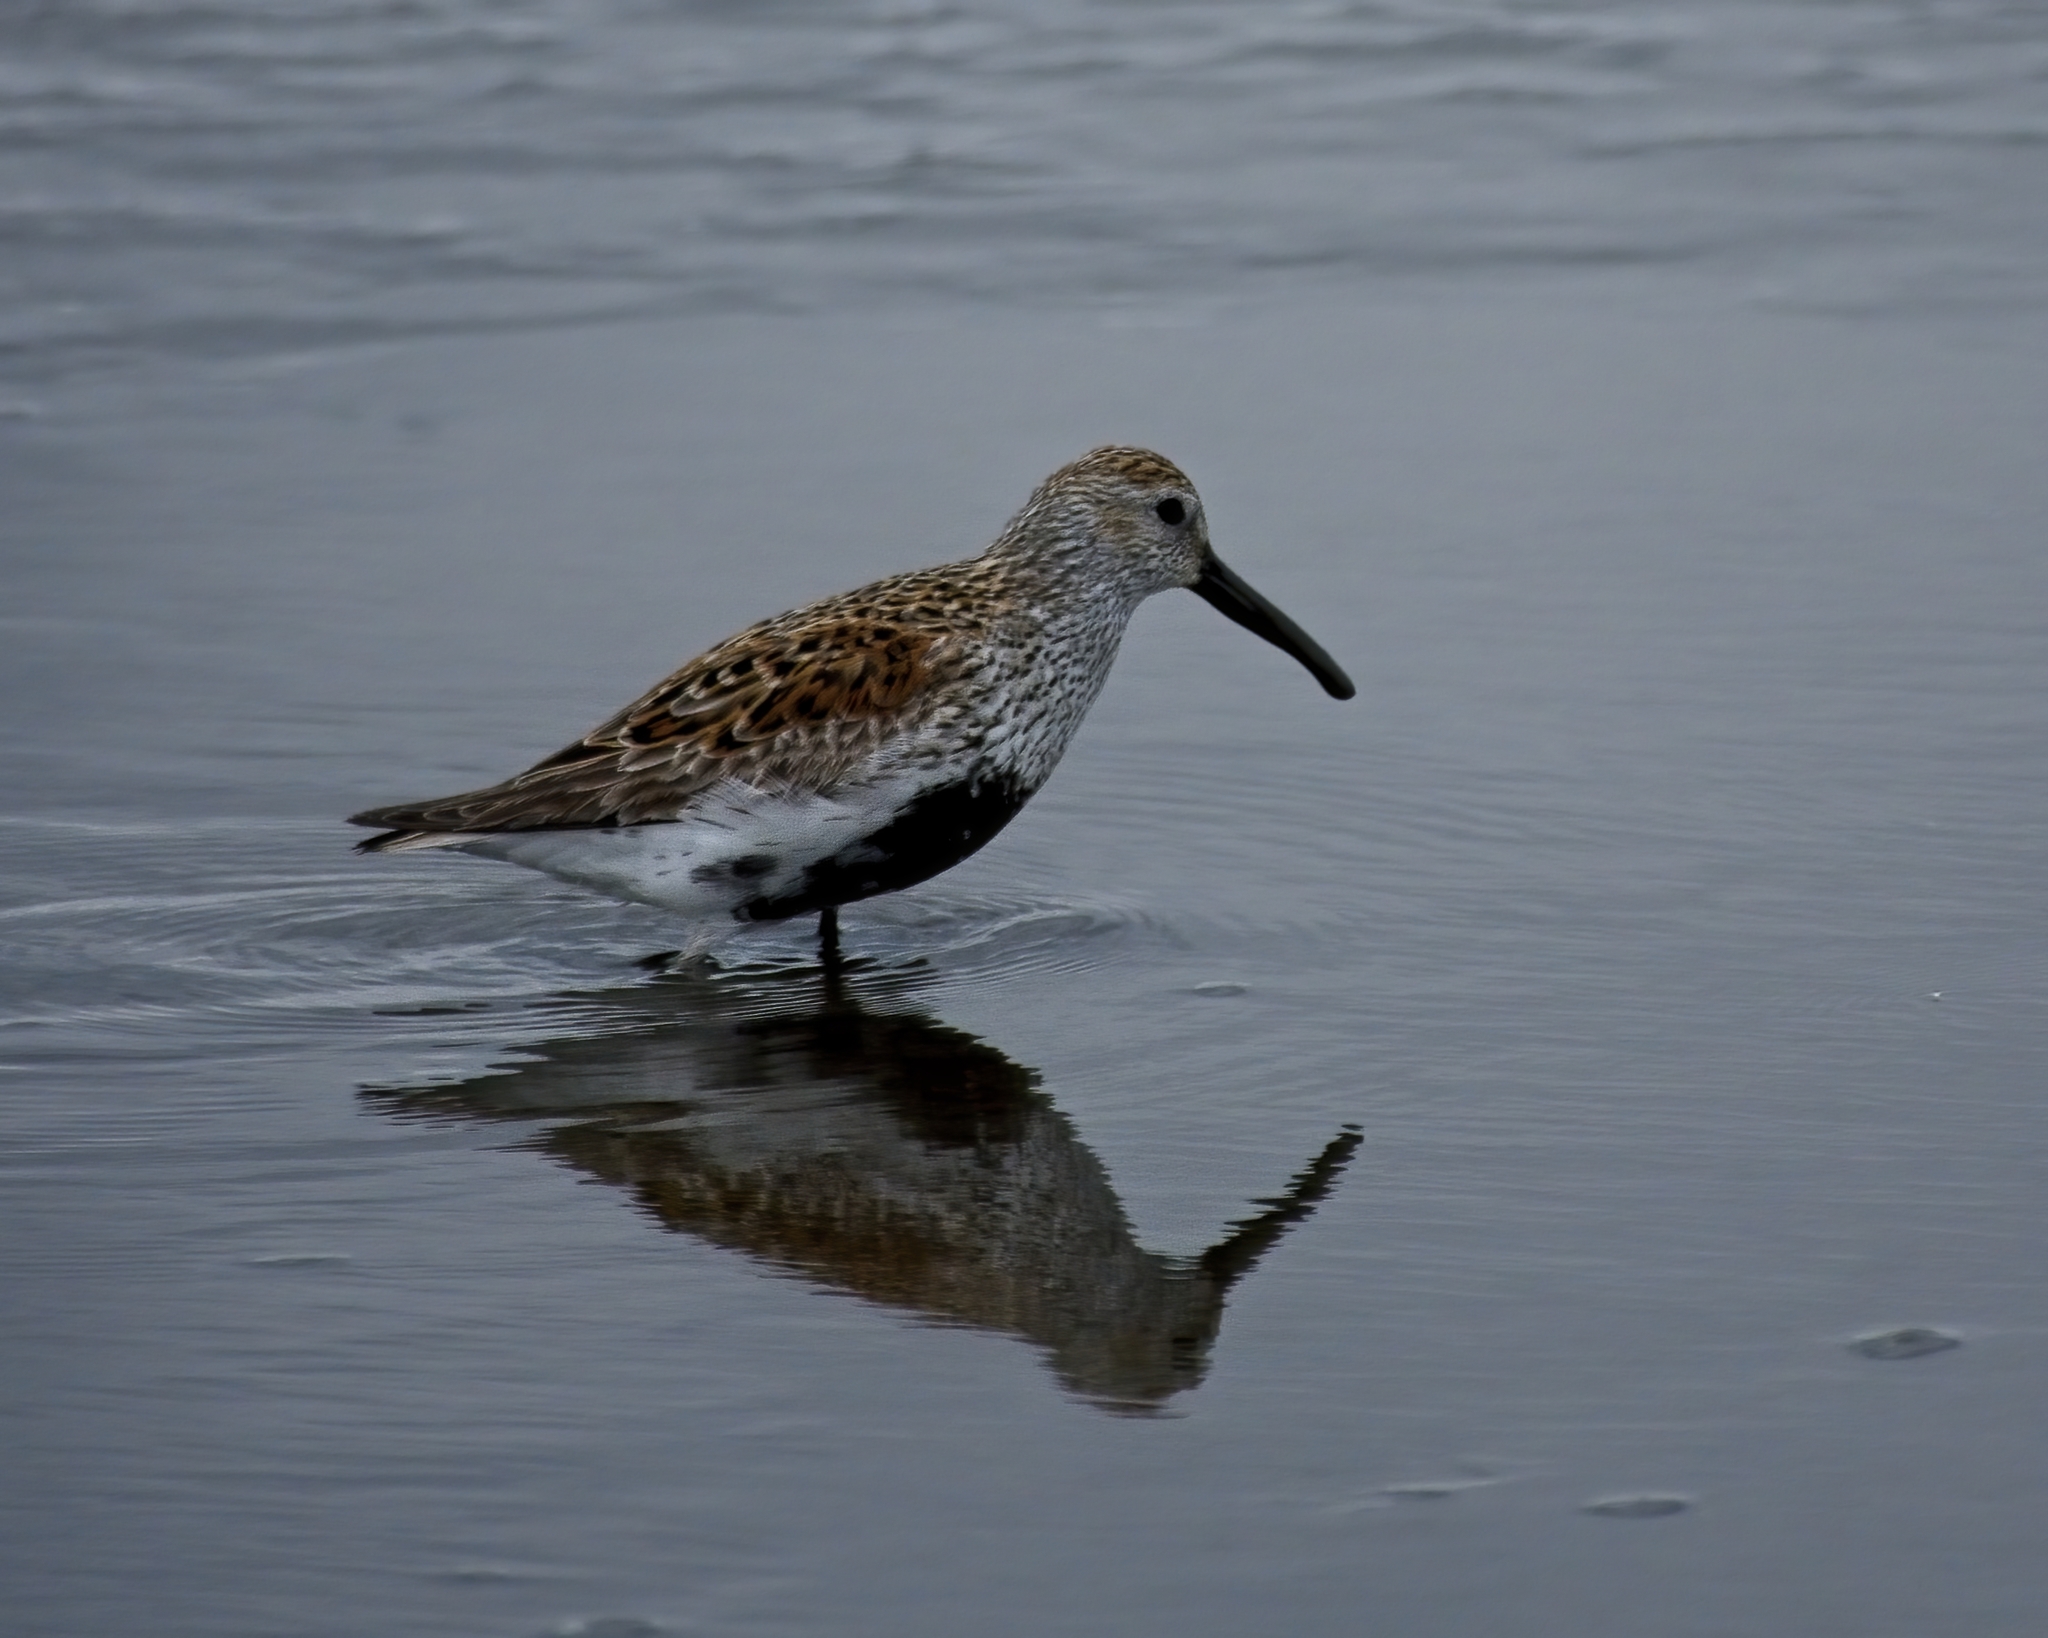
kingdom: Animalia
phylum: Chordata
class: Aves
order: Charadriiformes
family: Scolopacidae
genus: Calidris
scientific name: Calidris alpina
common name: Dunlin
